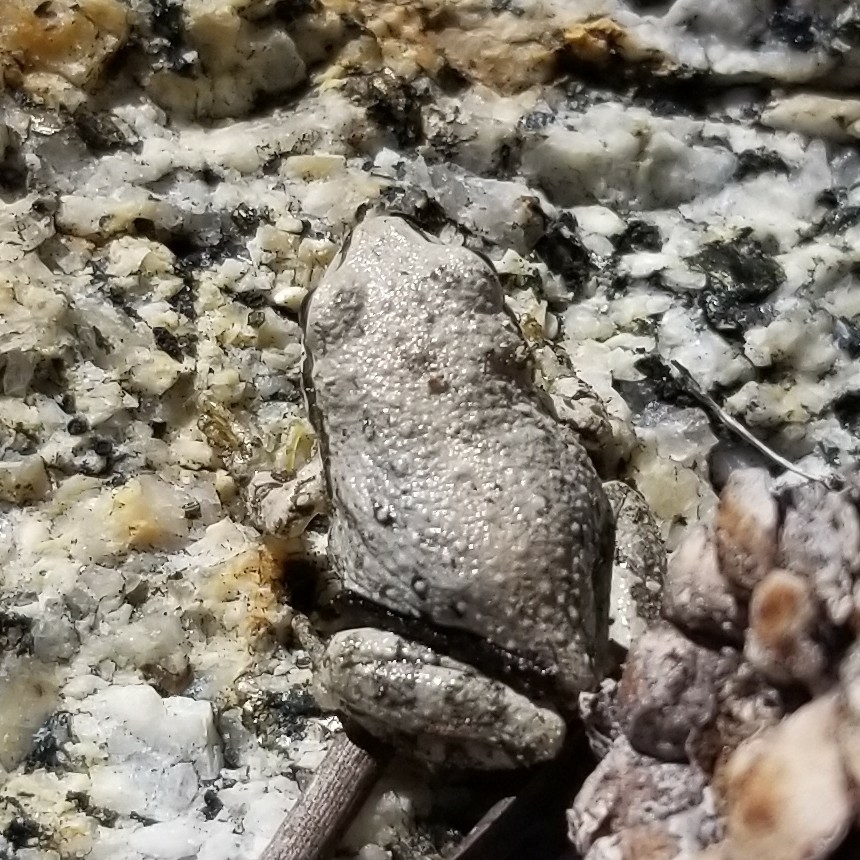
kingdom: Animalia
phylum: Chordata
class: Amphibia
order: Anura
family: Hylidae
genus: Pseudacris
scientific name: Pseudacris regilla
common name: Pacific chorus frog
